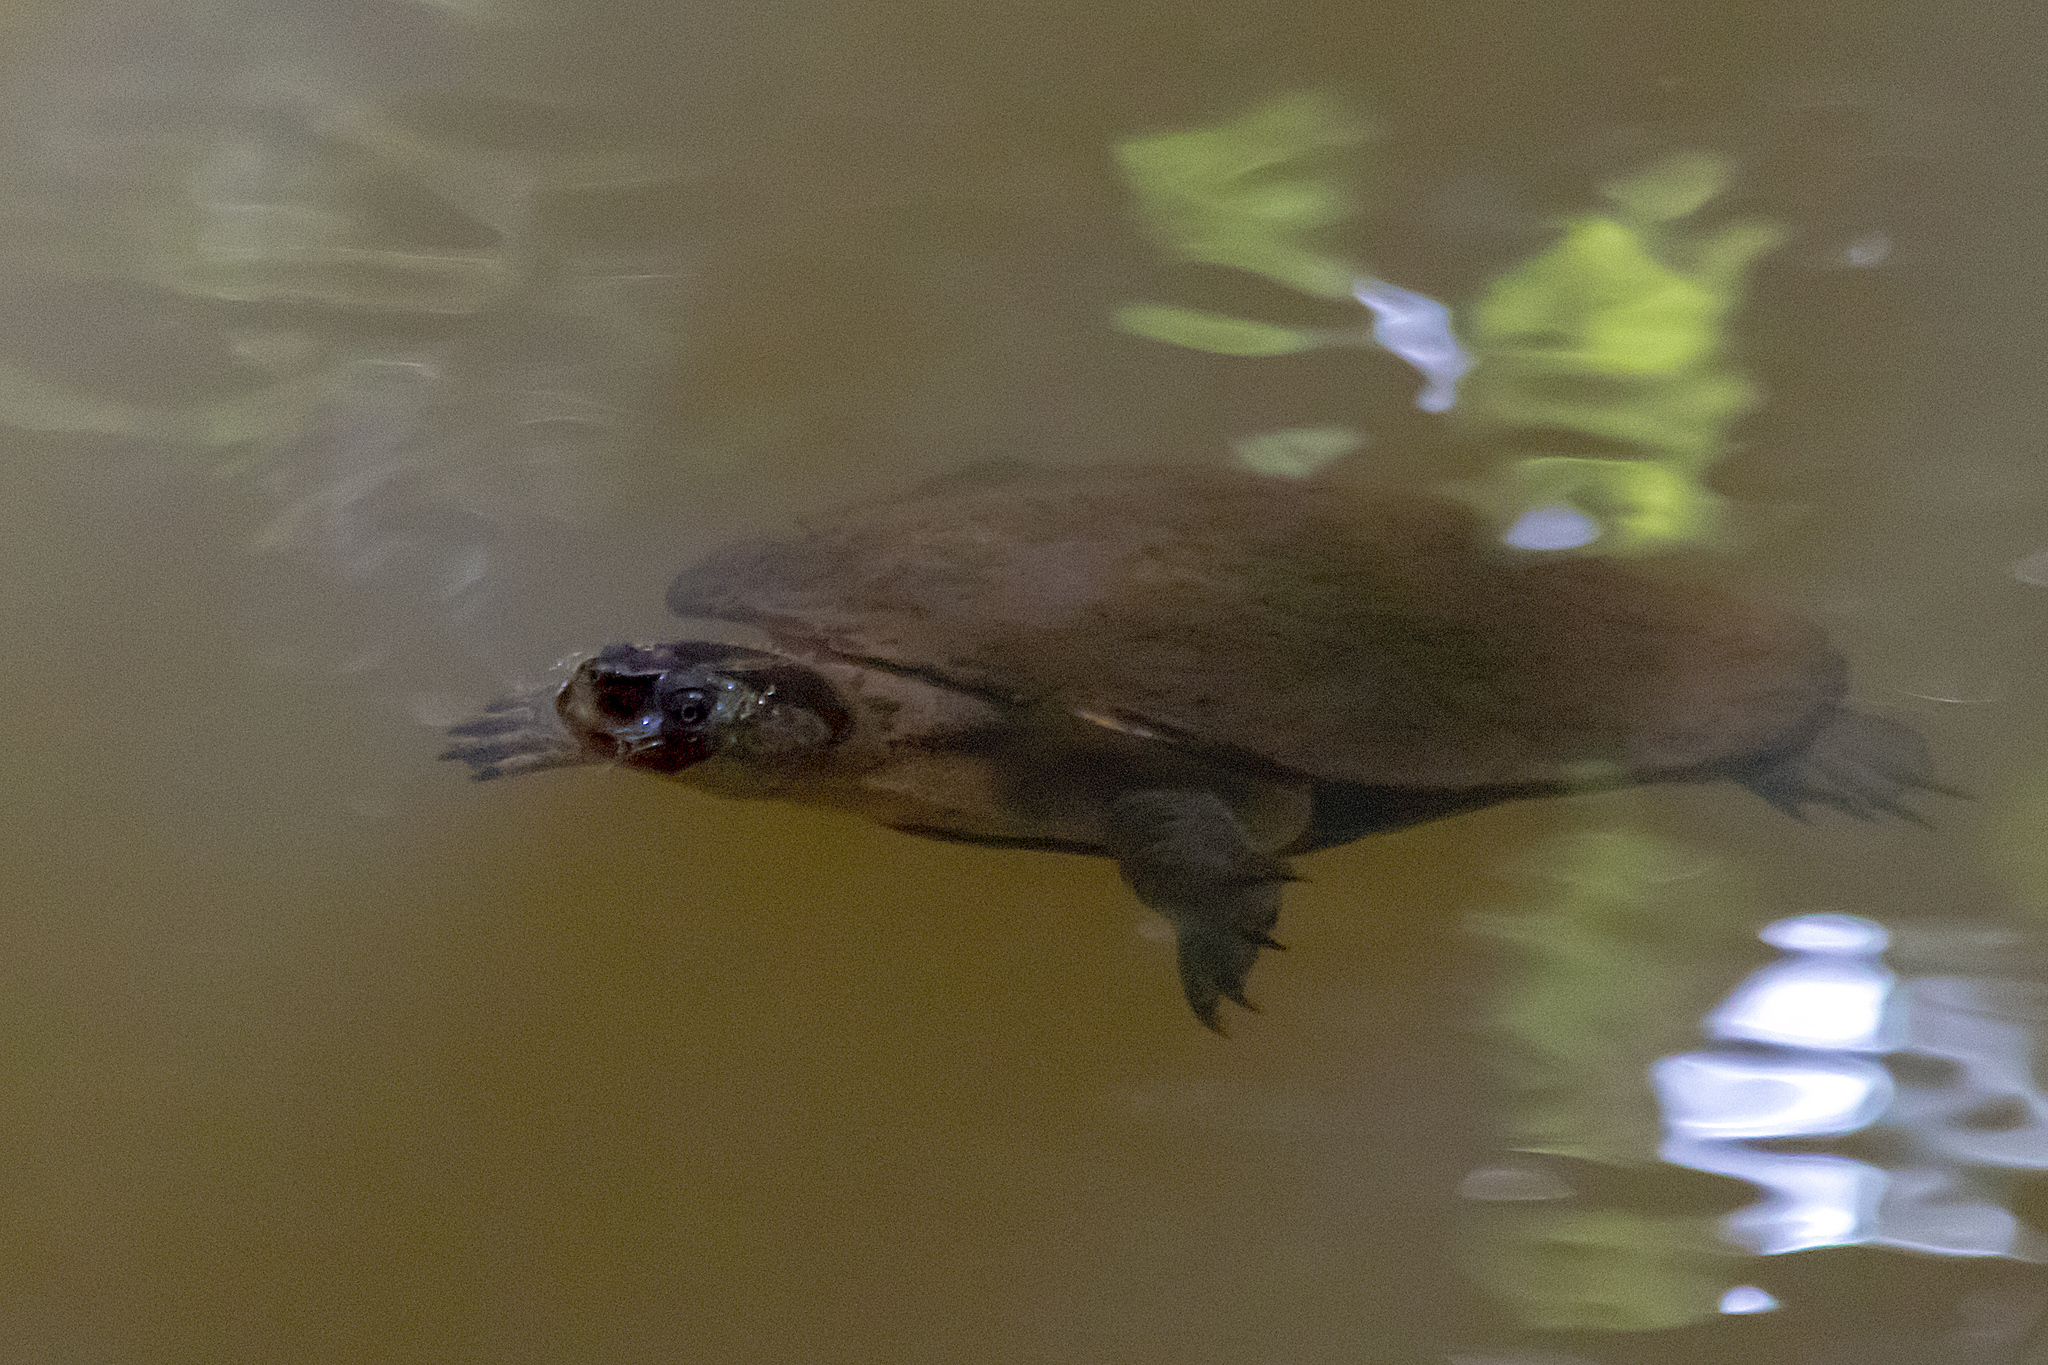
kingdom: Animalia
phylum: Chordata
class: Testudines
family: Chelidae
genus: Myuchelys
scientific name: Myuchelys latisternum
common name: Serrated snapping turtle
